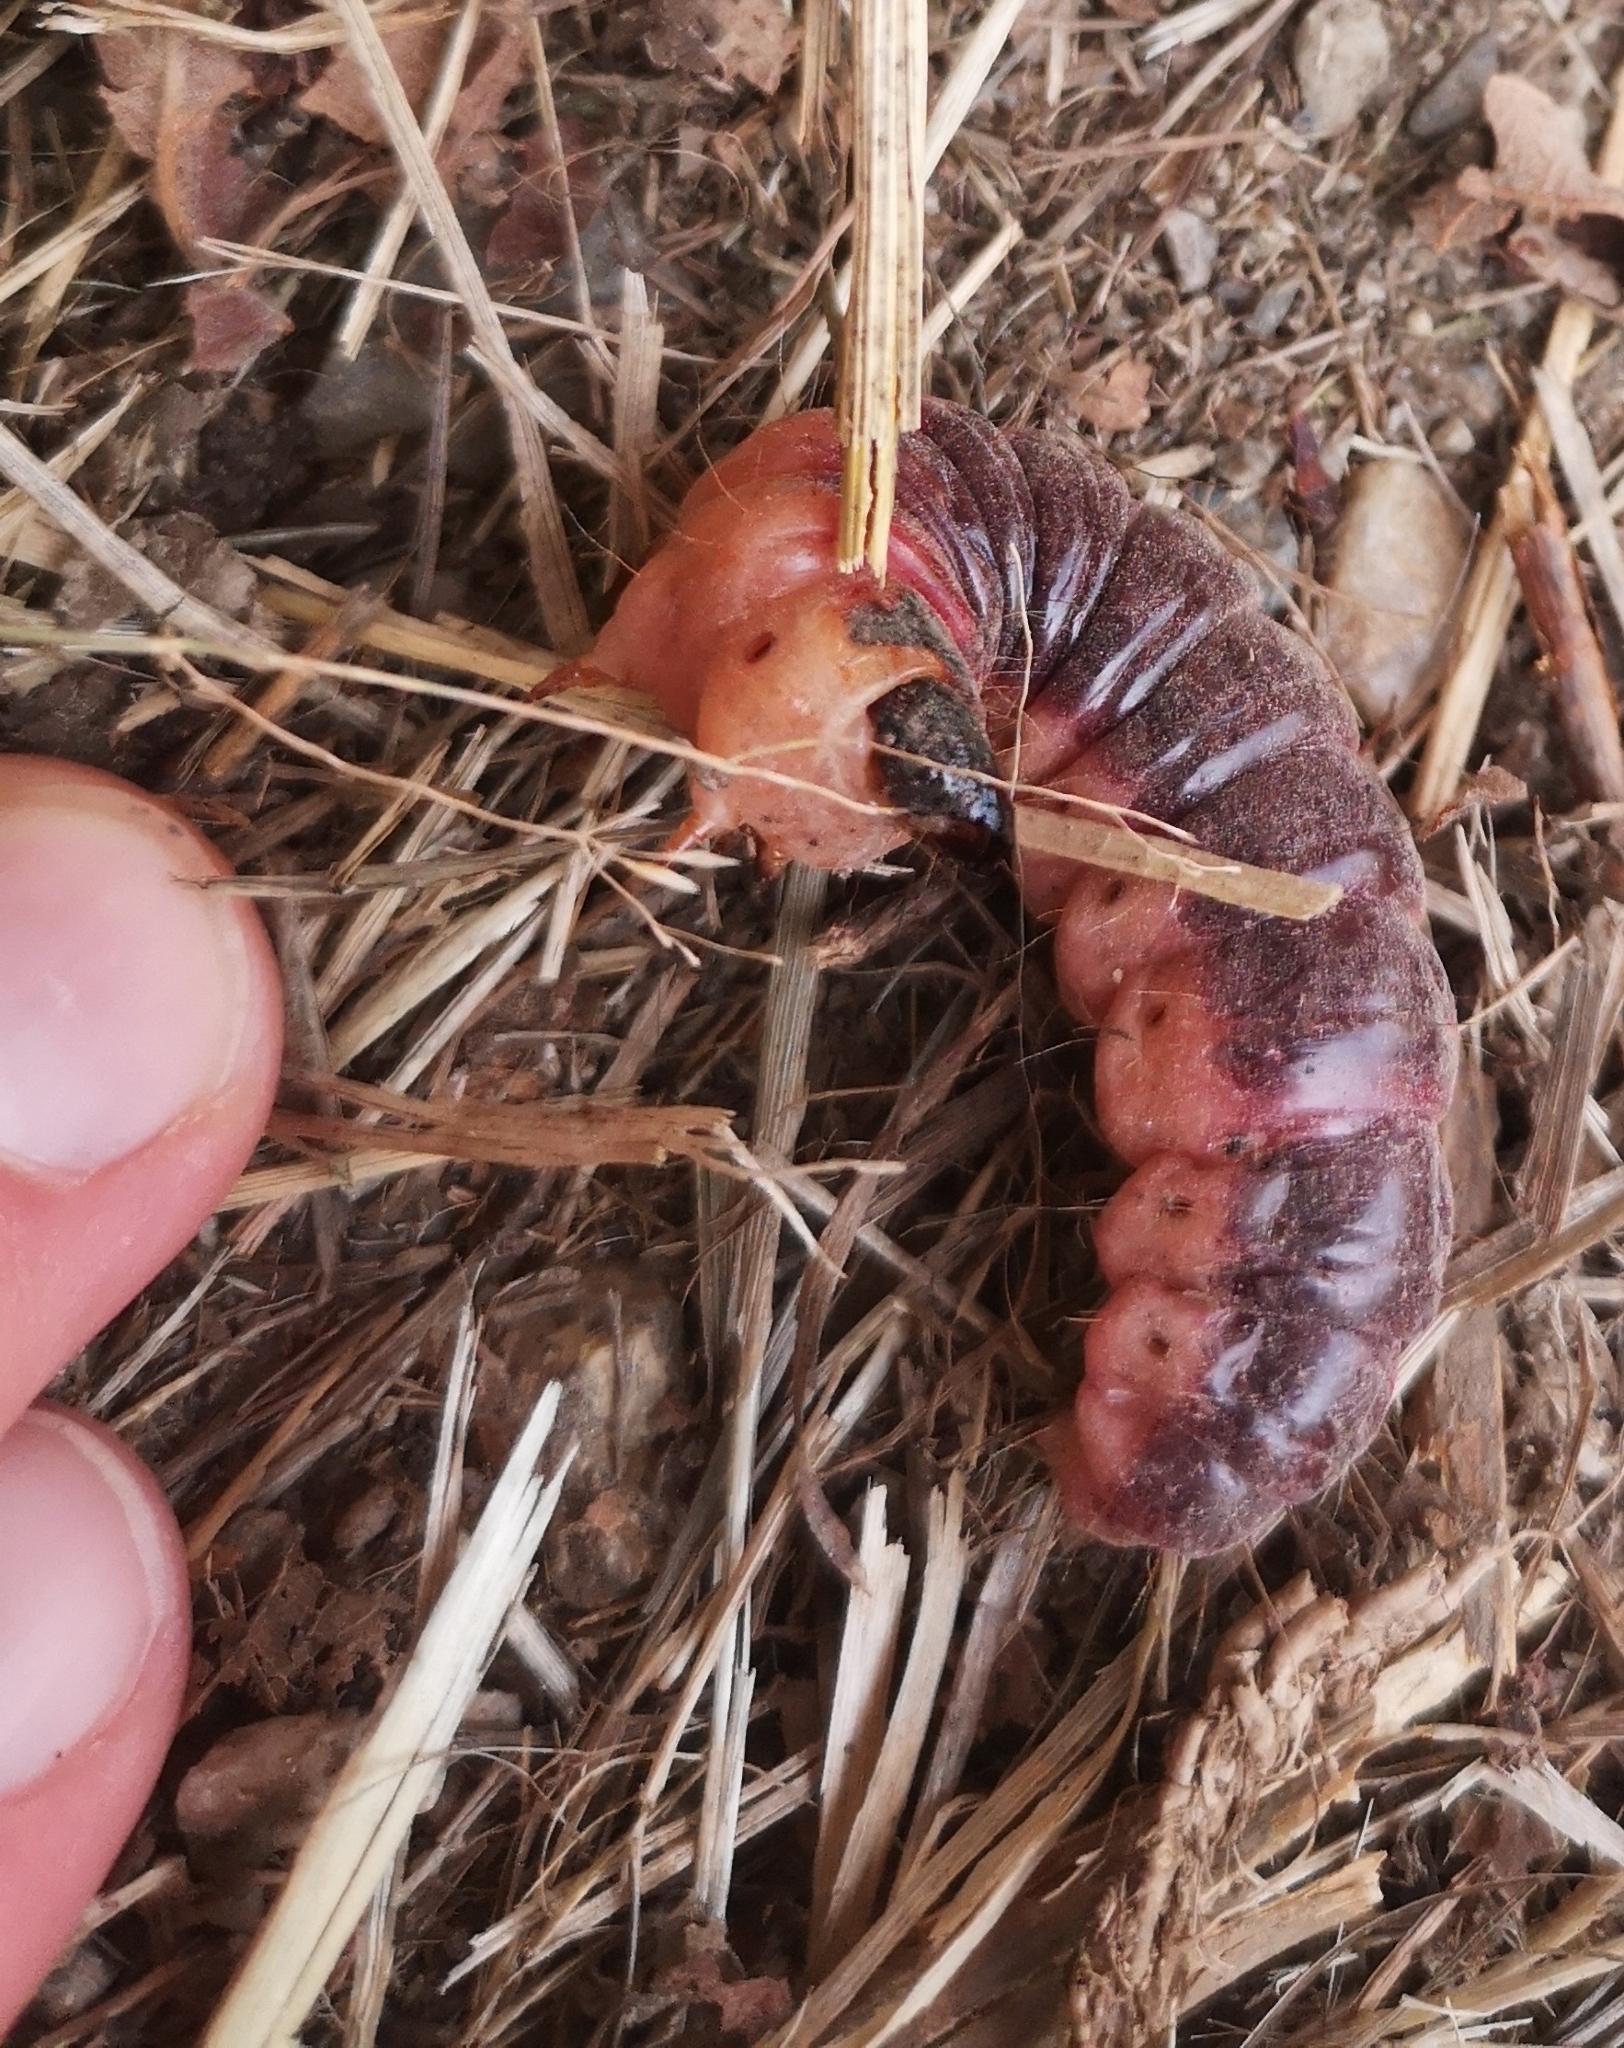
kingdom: Animalia
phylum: Arthropoda
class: Insecta
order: Lepidoptera
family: Cossidae
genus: Cossus
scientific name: Cossus cossus
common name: Goat moth
